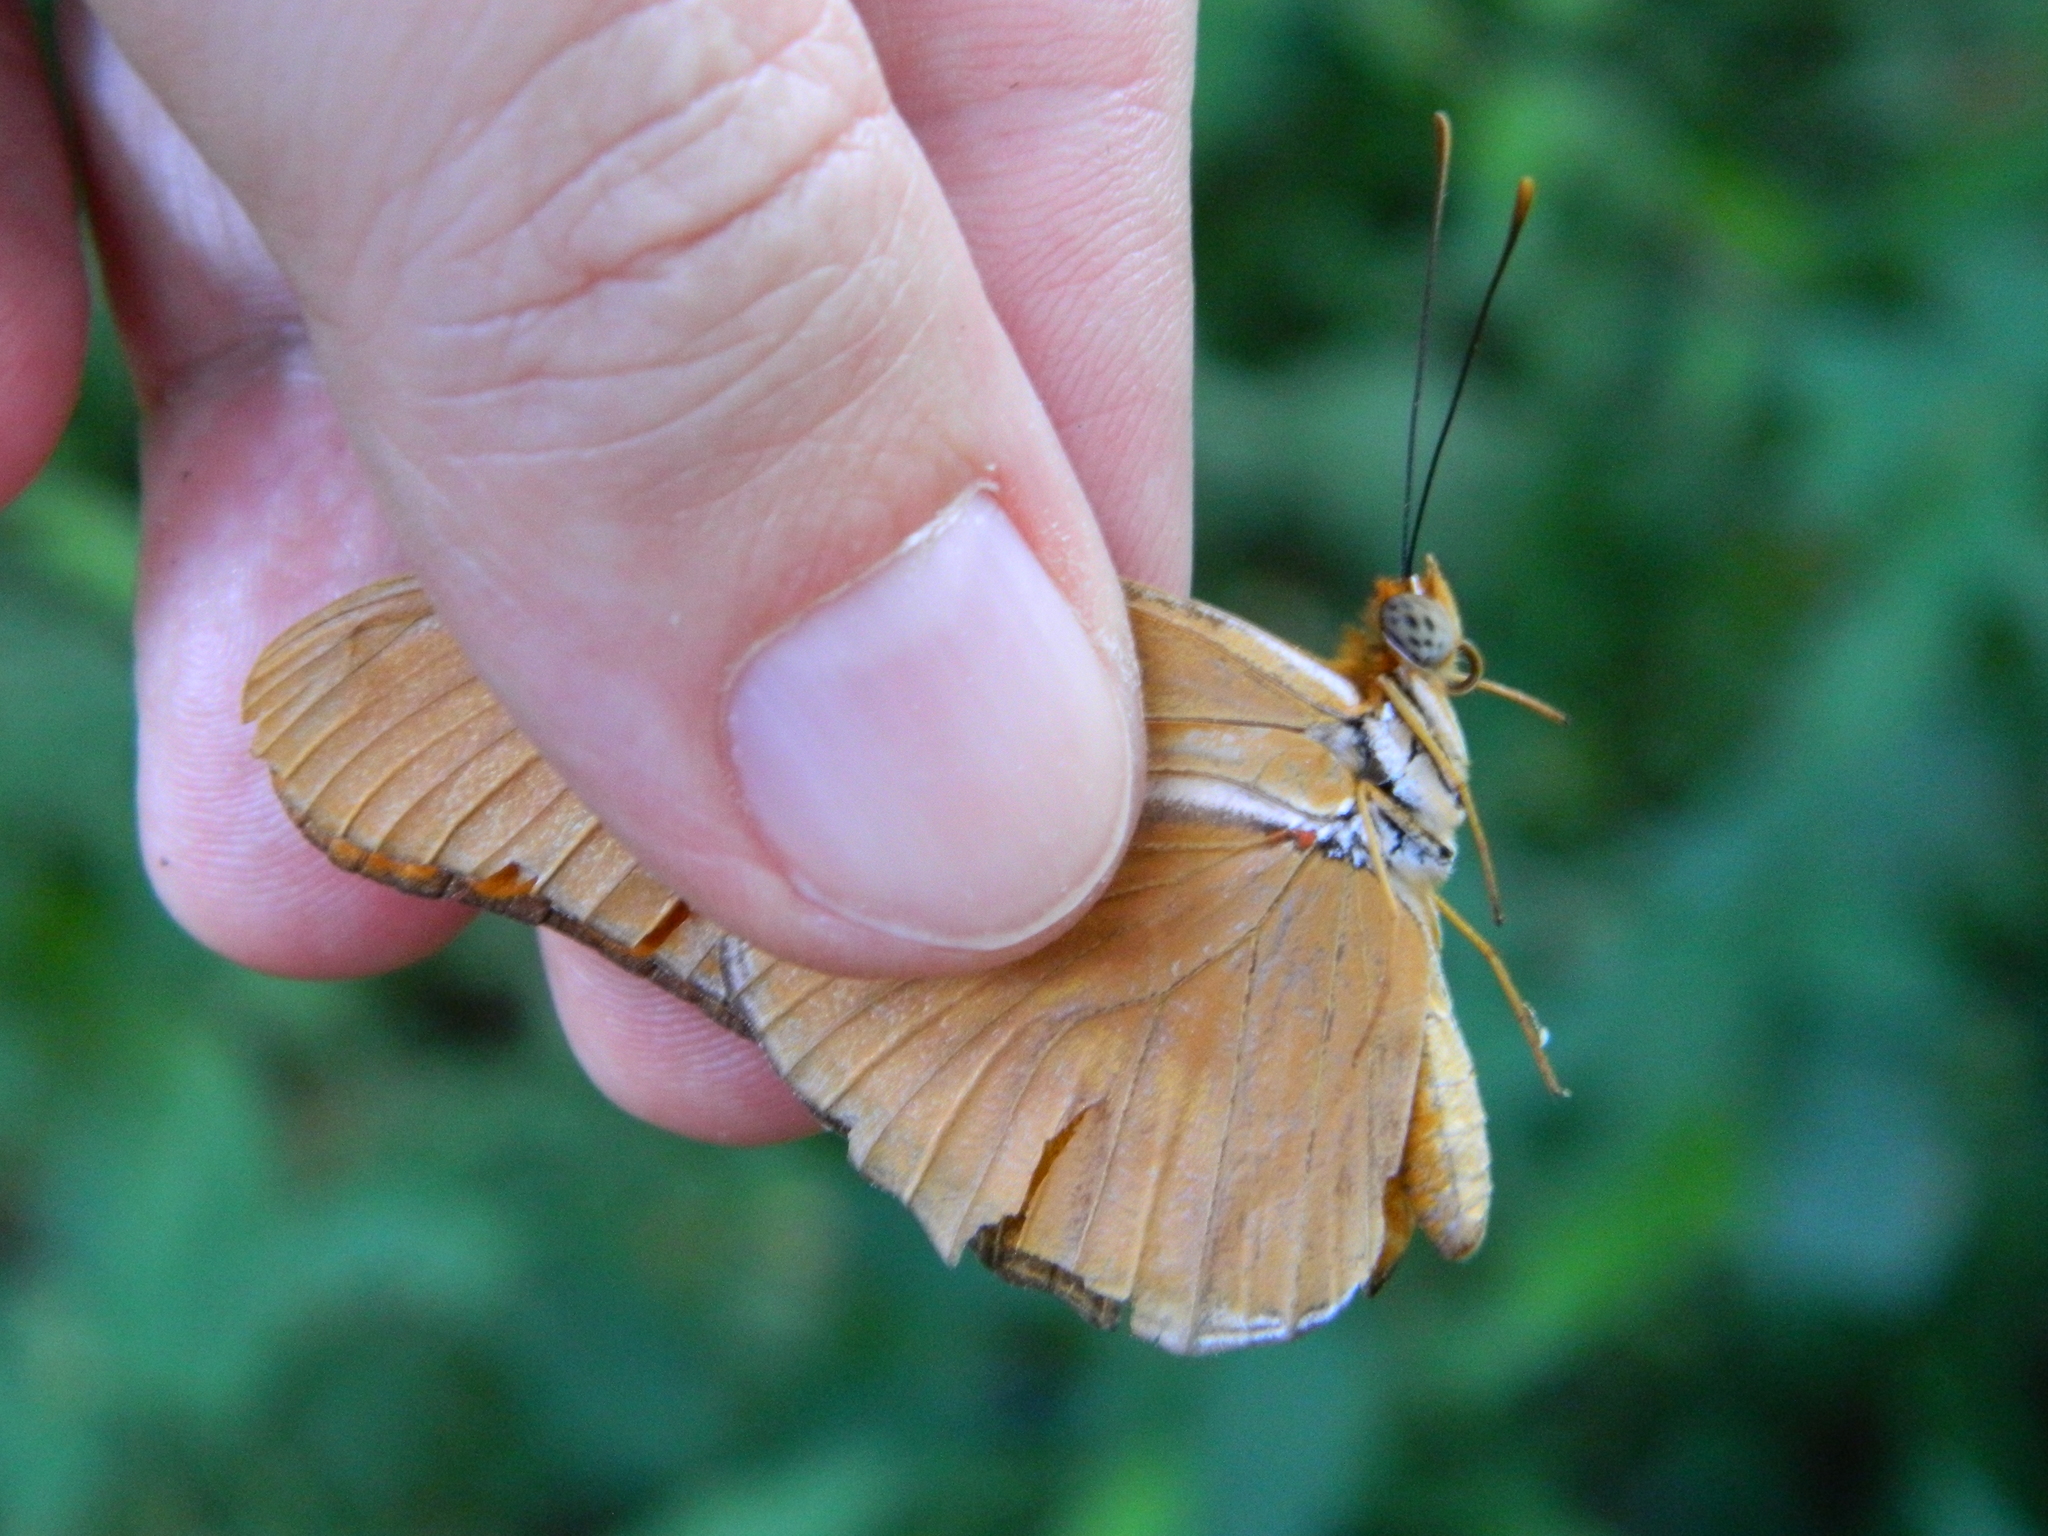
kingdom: Animalia
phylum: Arthropoda
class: Insecta
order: Lepidoptera
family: Nymphalidae
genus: Dryas
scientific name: Dryas iulia
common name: Flambeau
